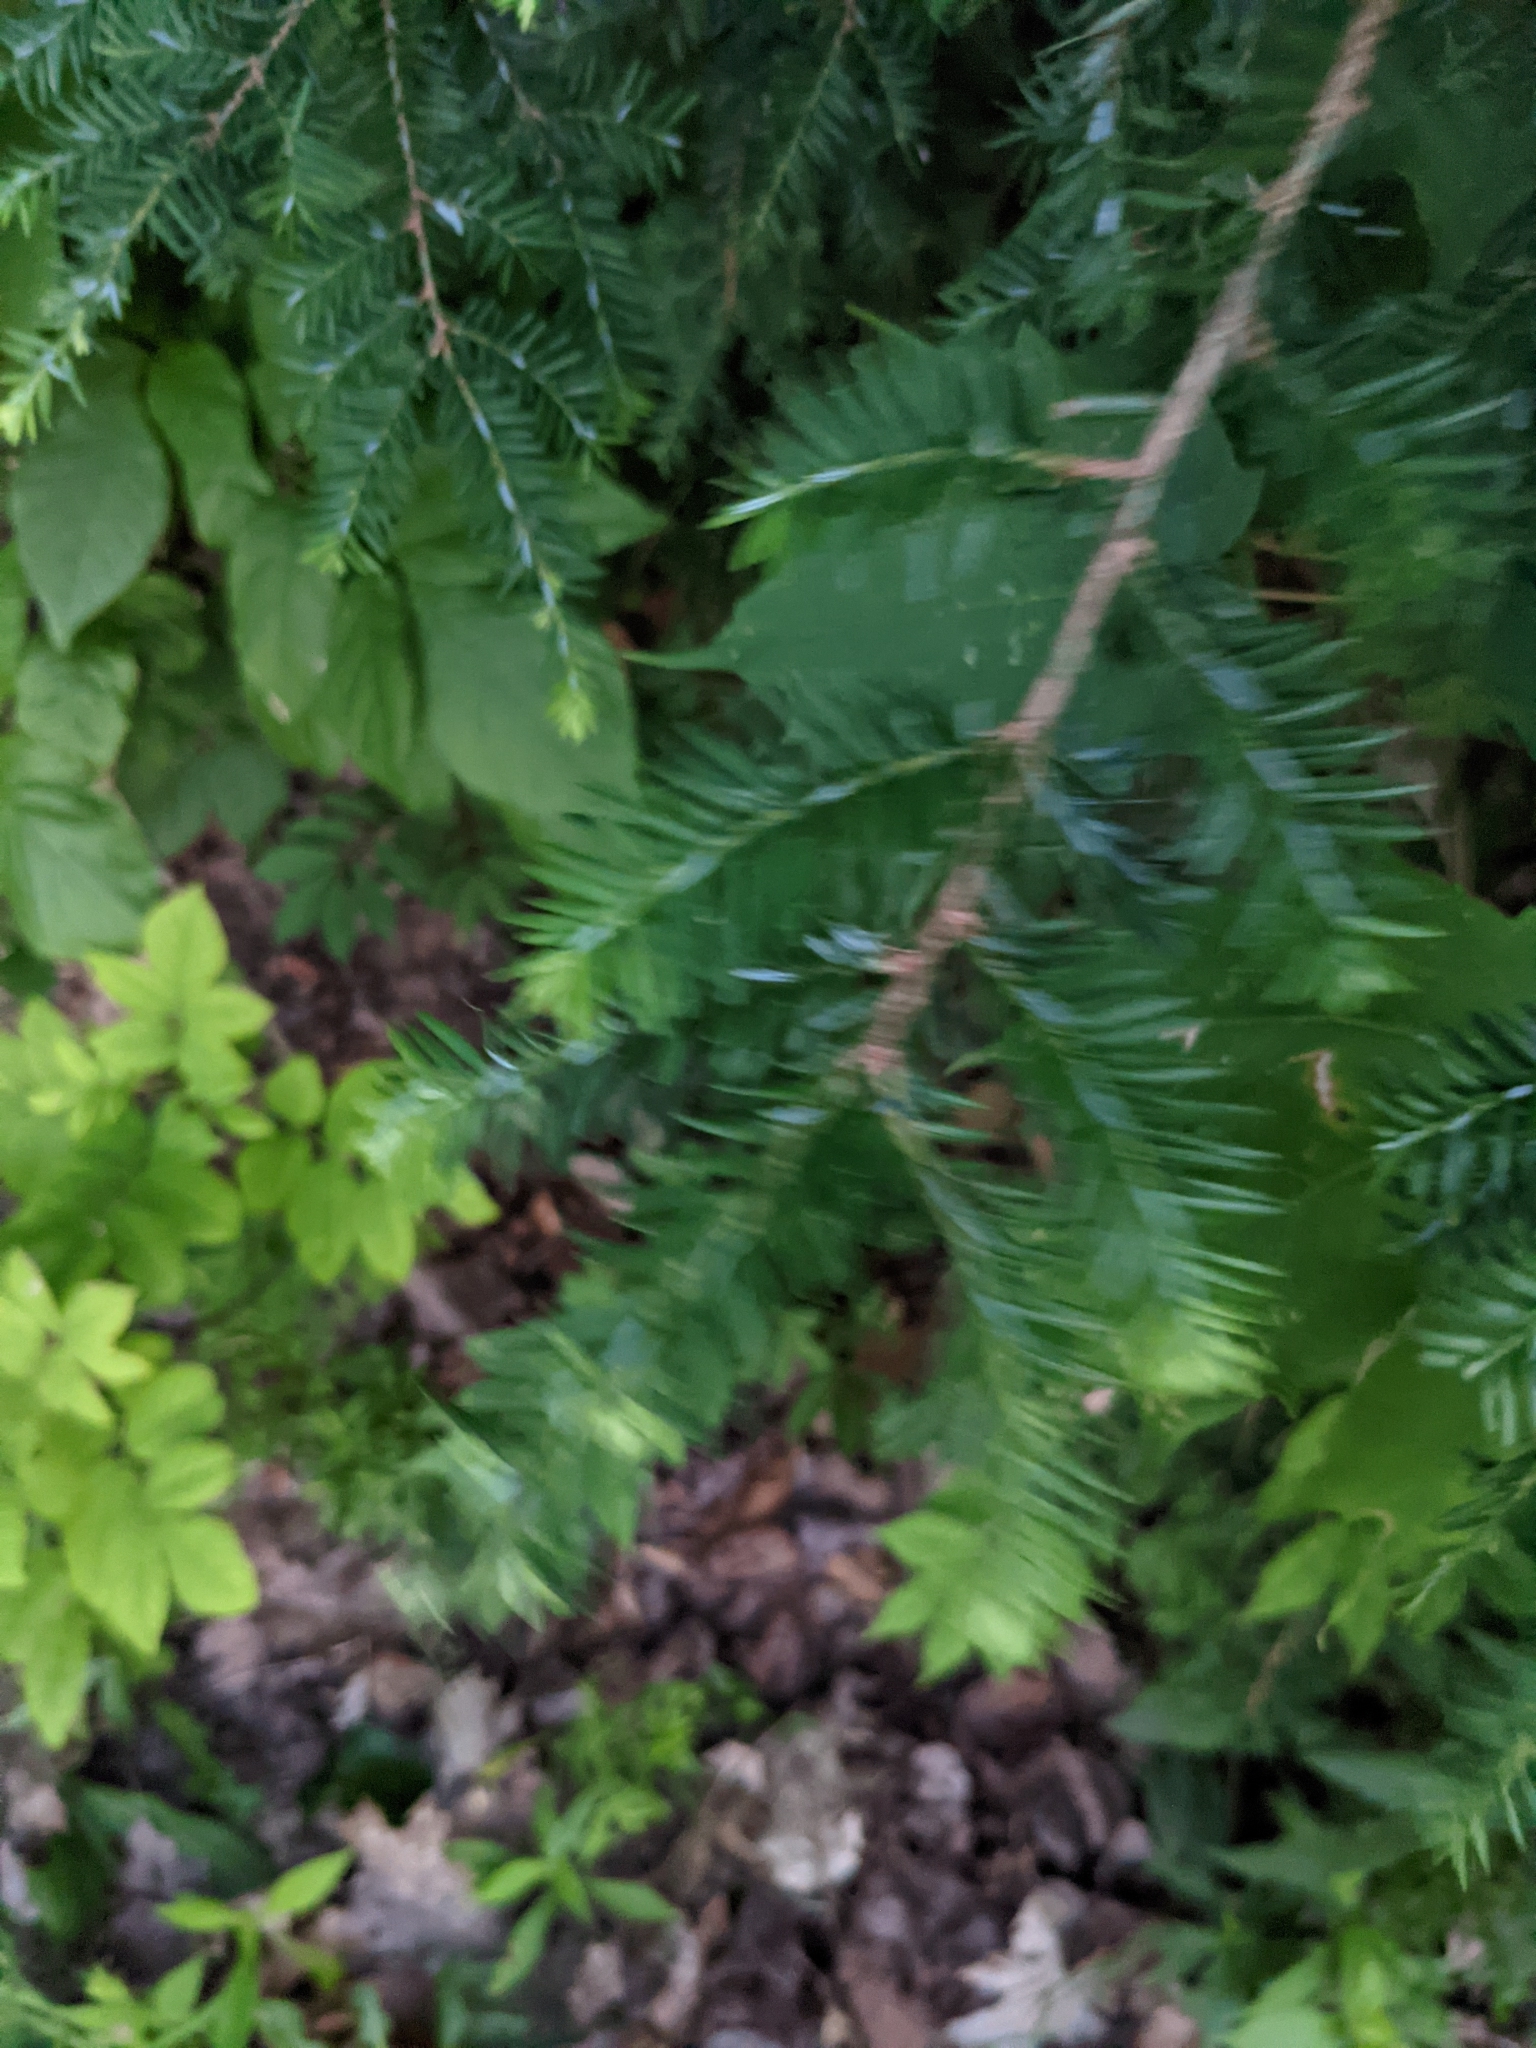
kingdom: Plantae
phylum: Tracheophyta
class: Pinopsida
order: Pinales
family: Pinaceae
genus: Tsuga
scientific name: Tsuga canadensis
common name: Eastern hemlock
